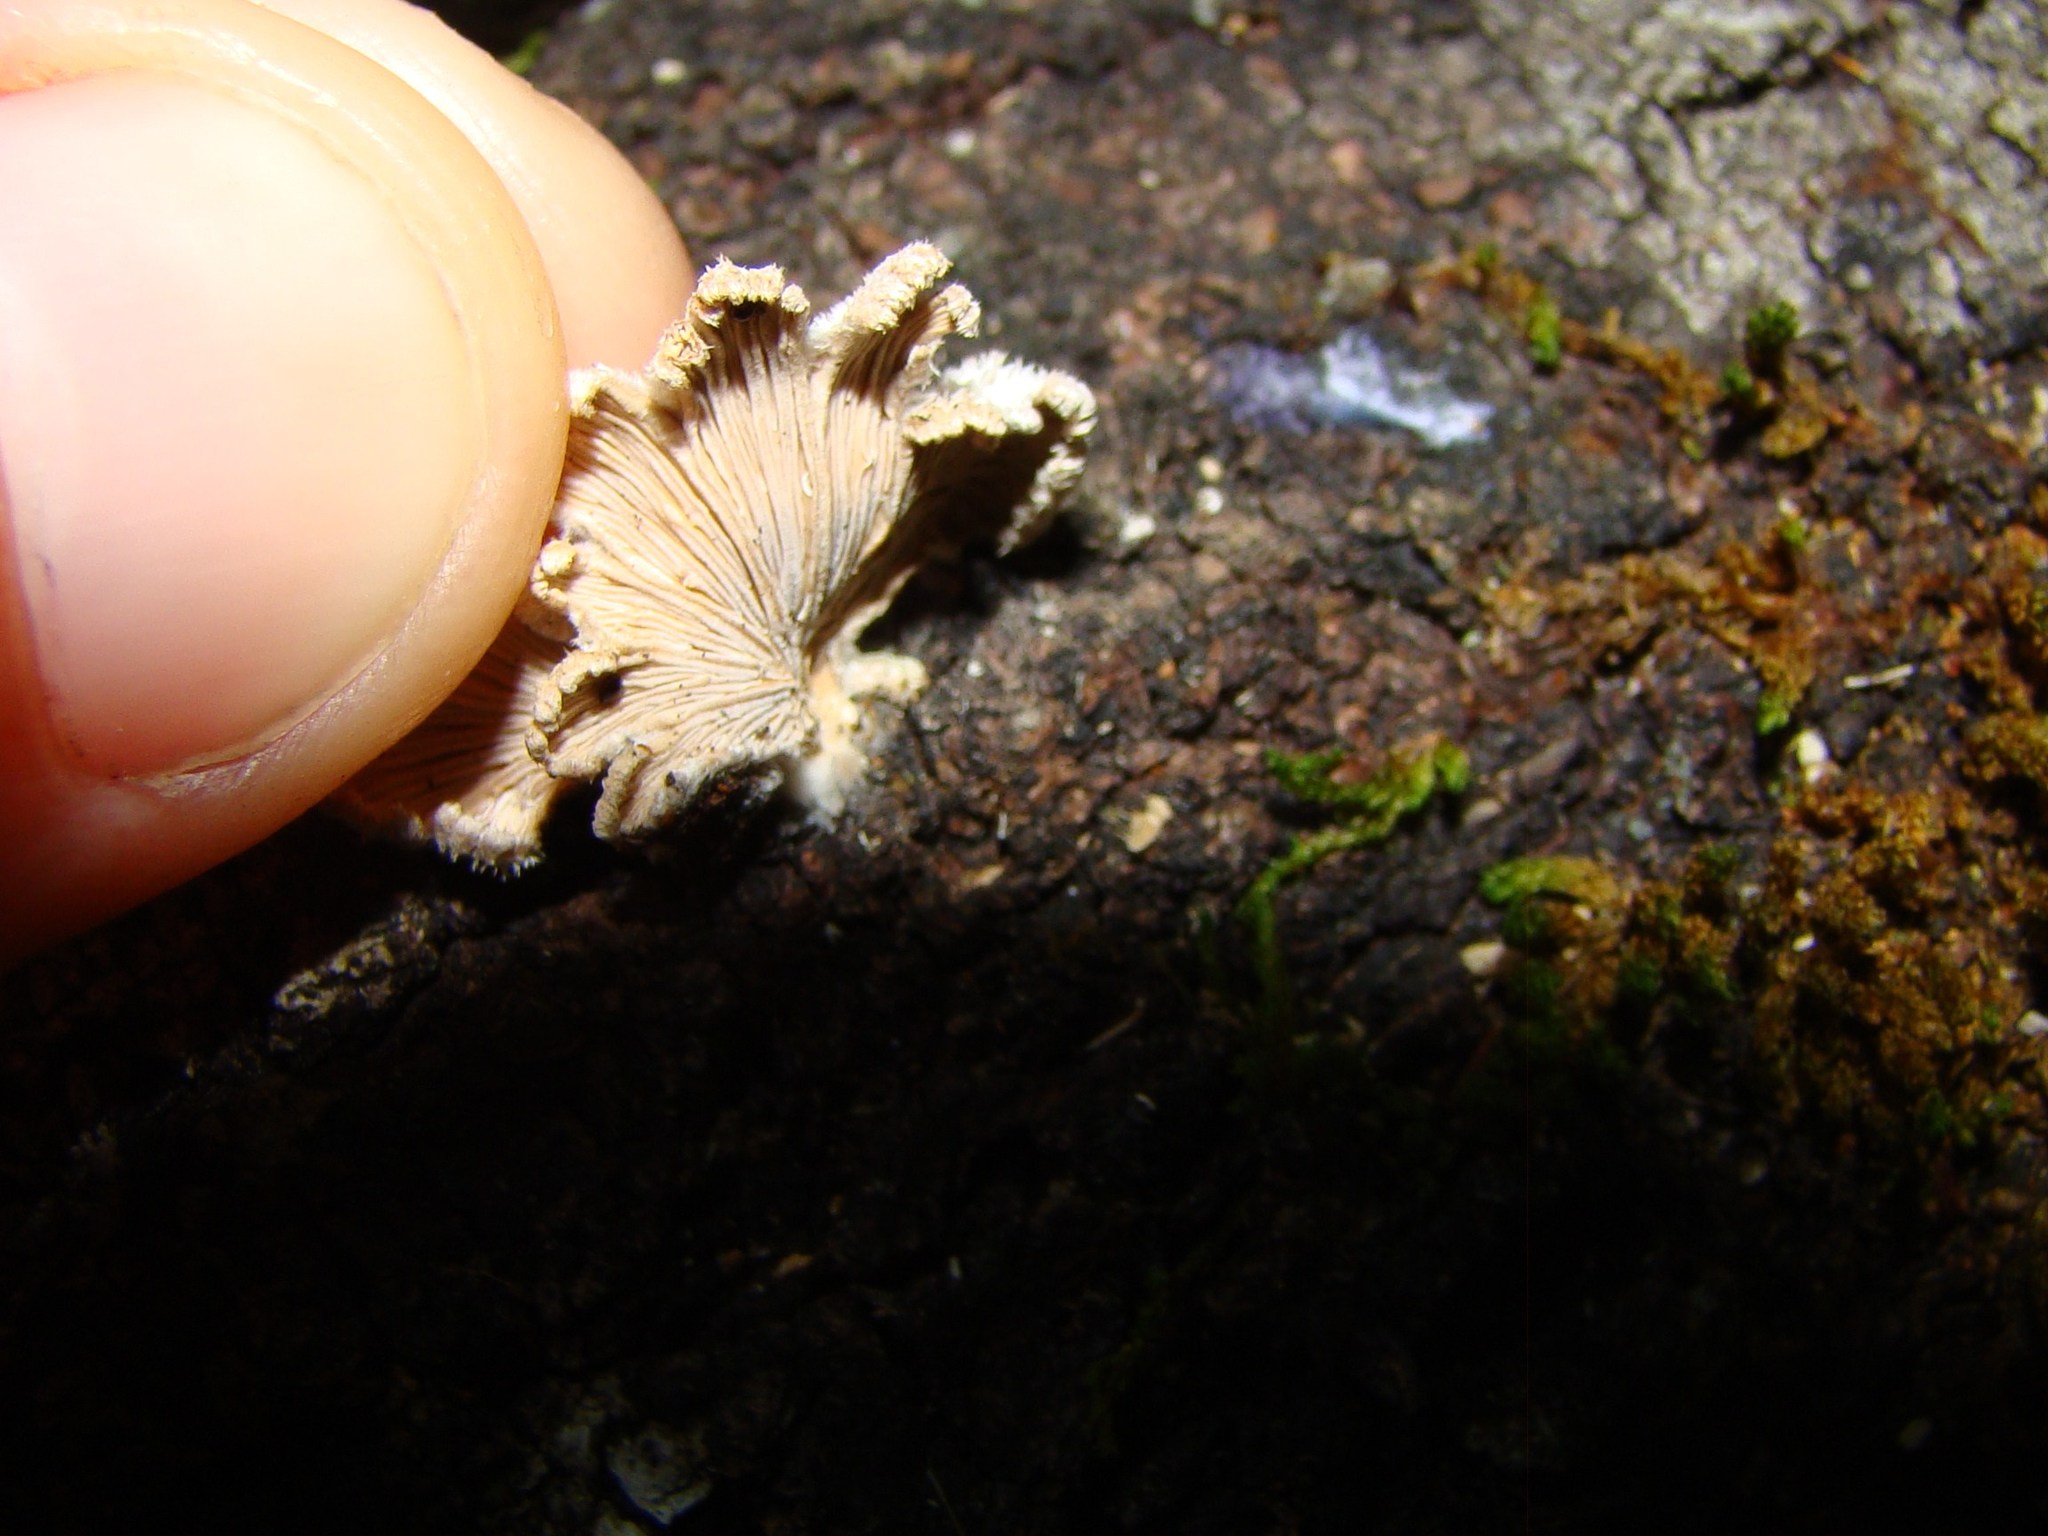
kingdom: Fungi
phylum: Basidiomycota
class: Agaricomycetes
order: Agaricales
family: Schizophyllaceae
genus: Schizophyllum
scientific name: Schizophyllum commune
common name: Common porecrust
